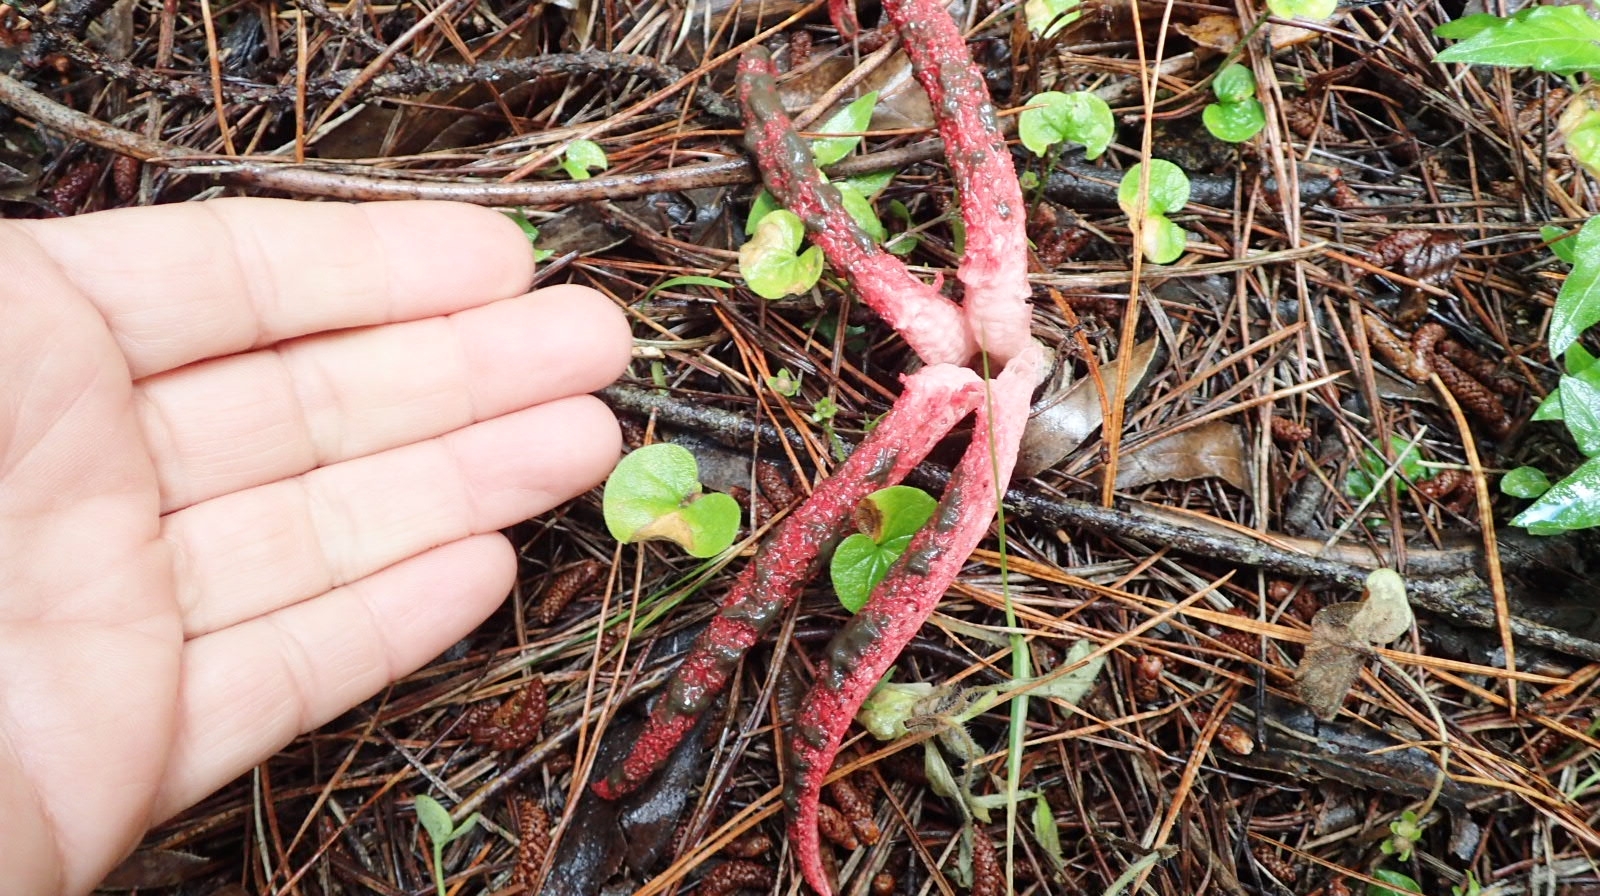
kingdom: Fungi
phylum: Basidiomycota
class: Agaricomycetes
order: Phallales
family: Phallaceae
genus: Clathrus
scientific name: Clathrus archeri
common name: Devil's fingers
